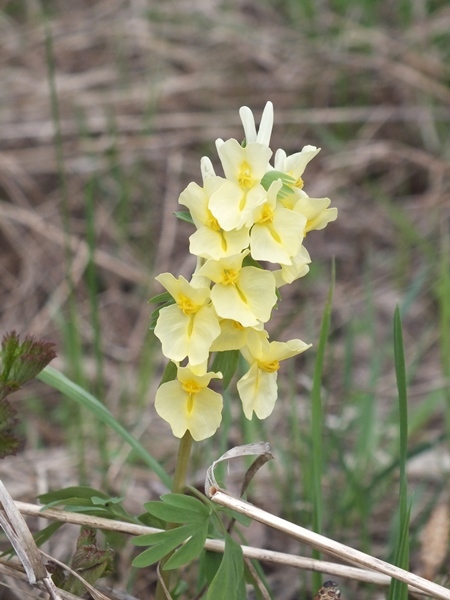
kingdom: Plantae
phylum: Tracheophyta
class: Magnoliopsida
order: Ranunculales
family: Papaveraceae
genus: Corydalis
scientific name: Corydalis bracteata
